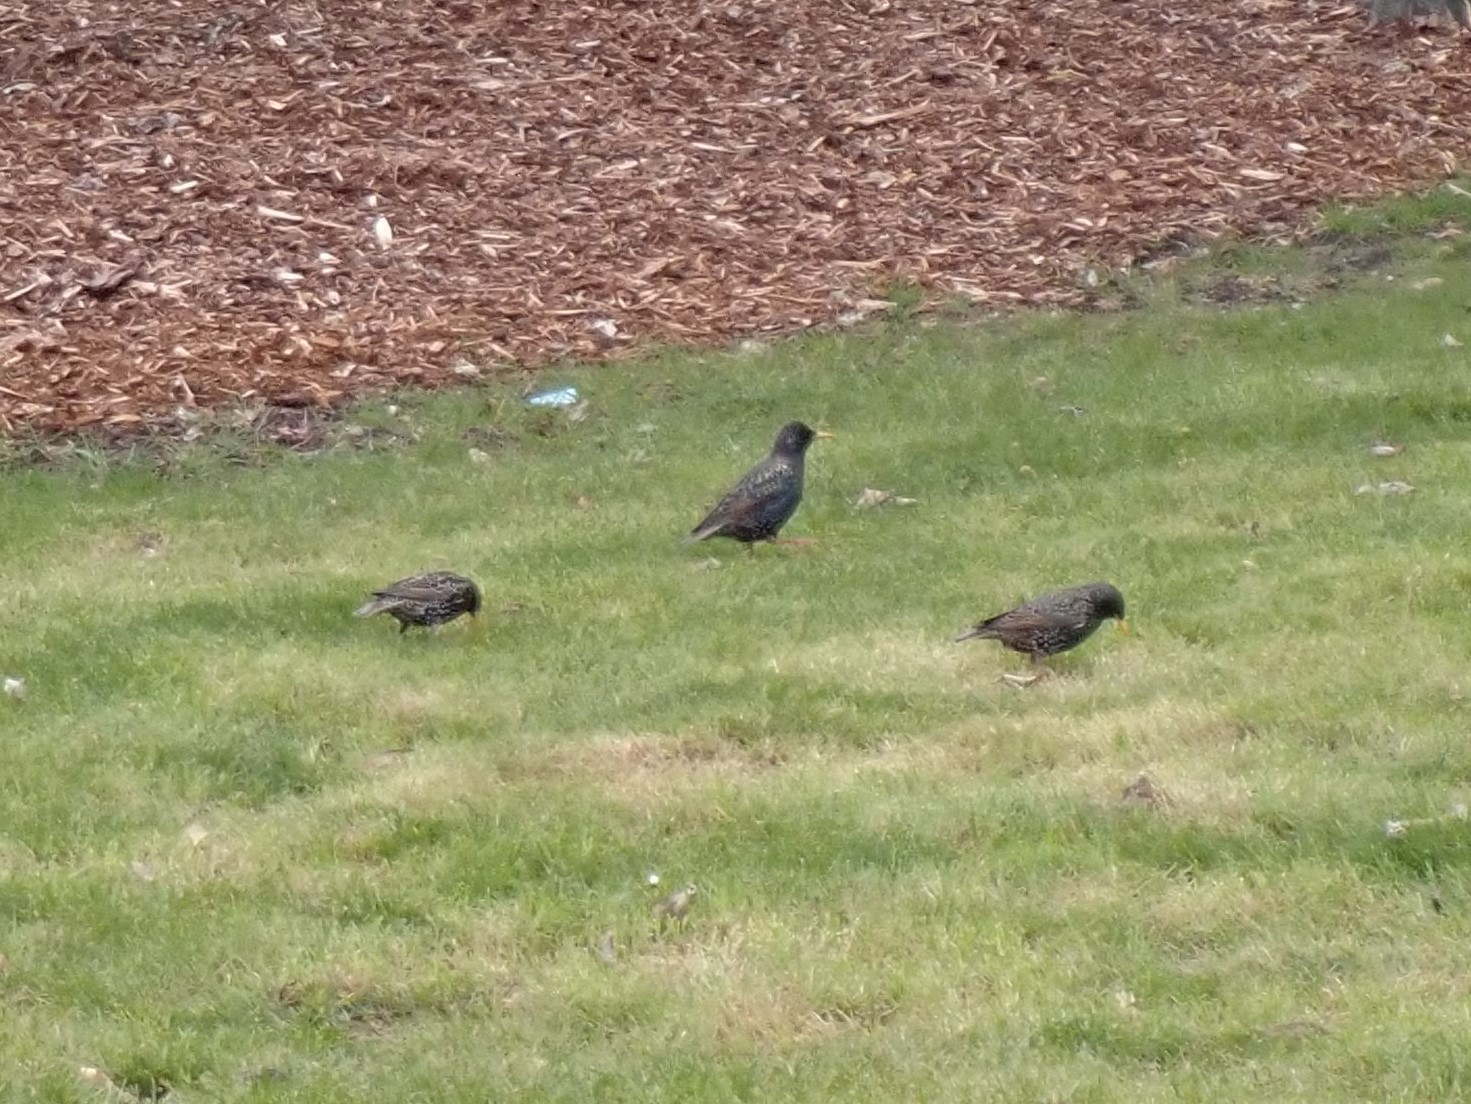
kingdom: Animalia
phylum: Chordata
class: Aves
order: Passeriformes
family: Sturnidae
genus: Sturnus
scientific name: Sturnus vulgaris
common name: Common starling
